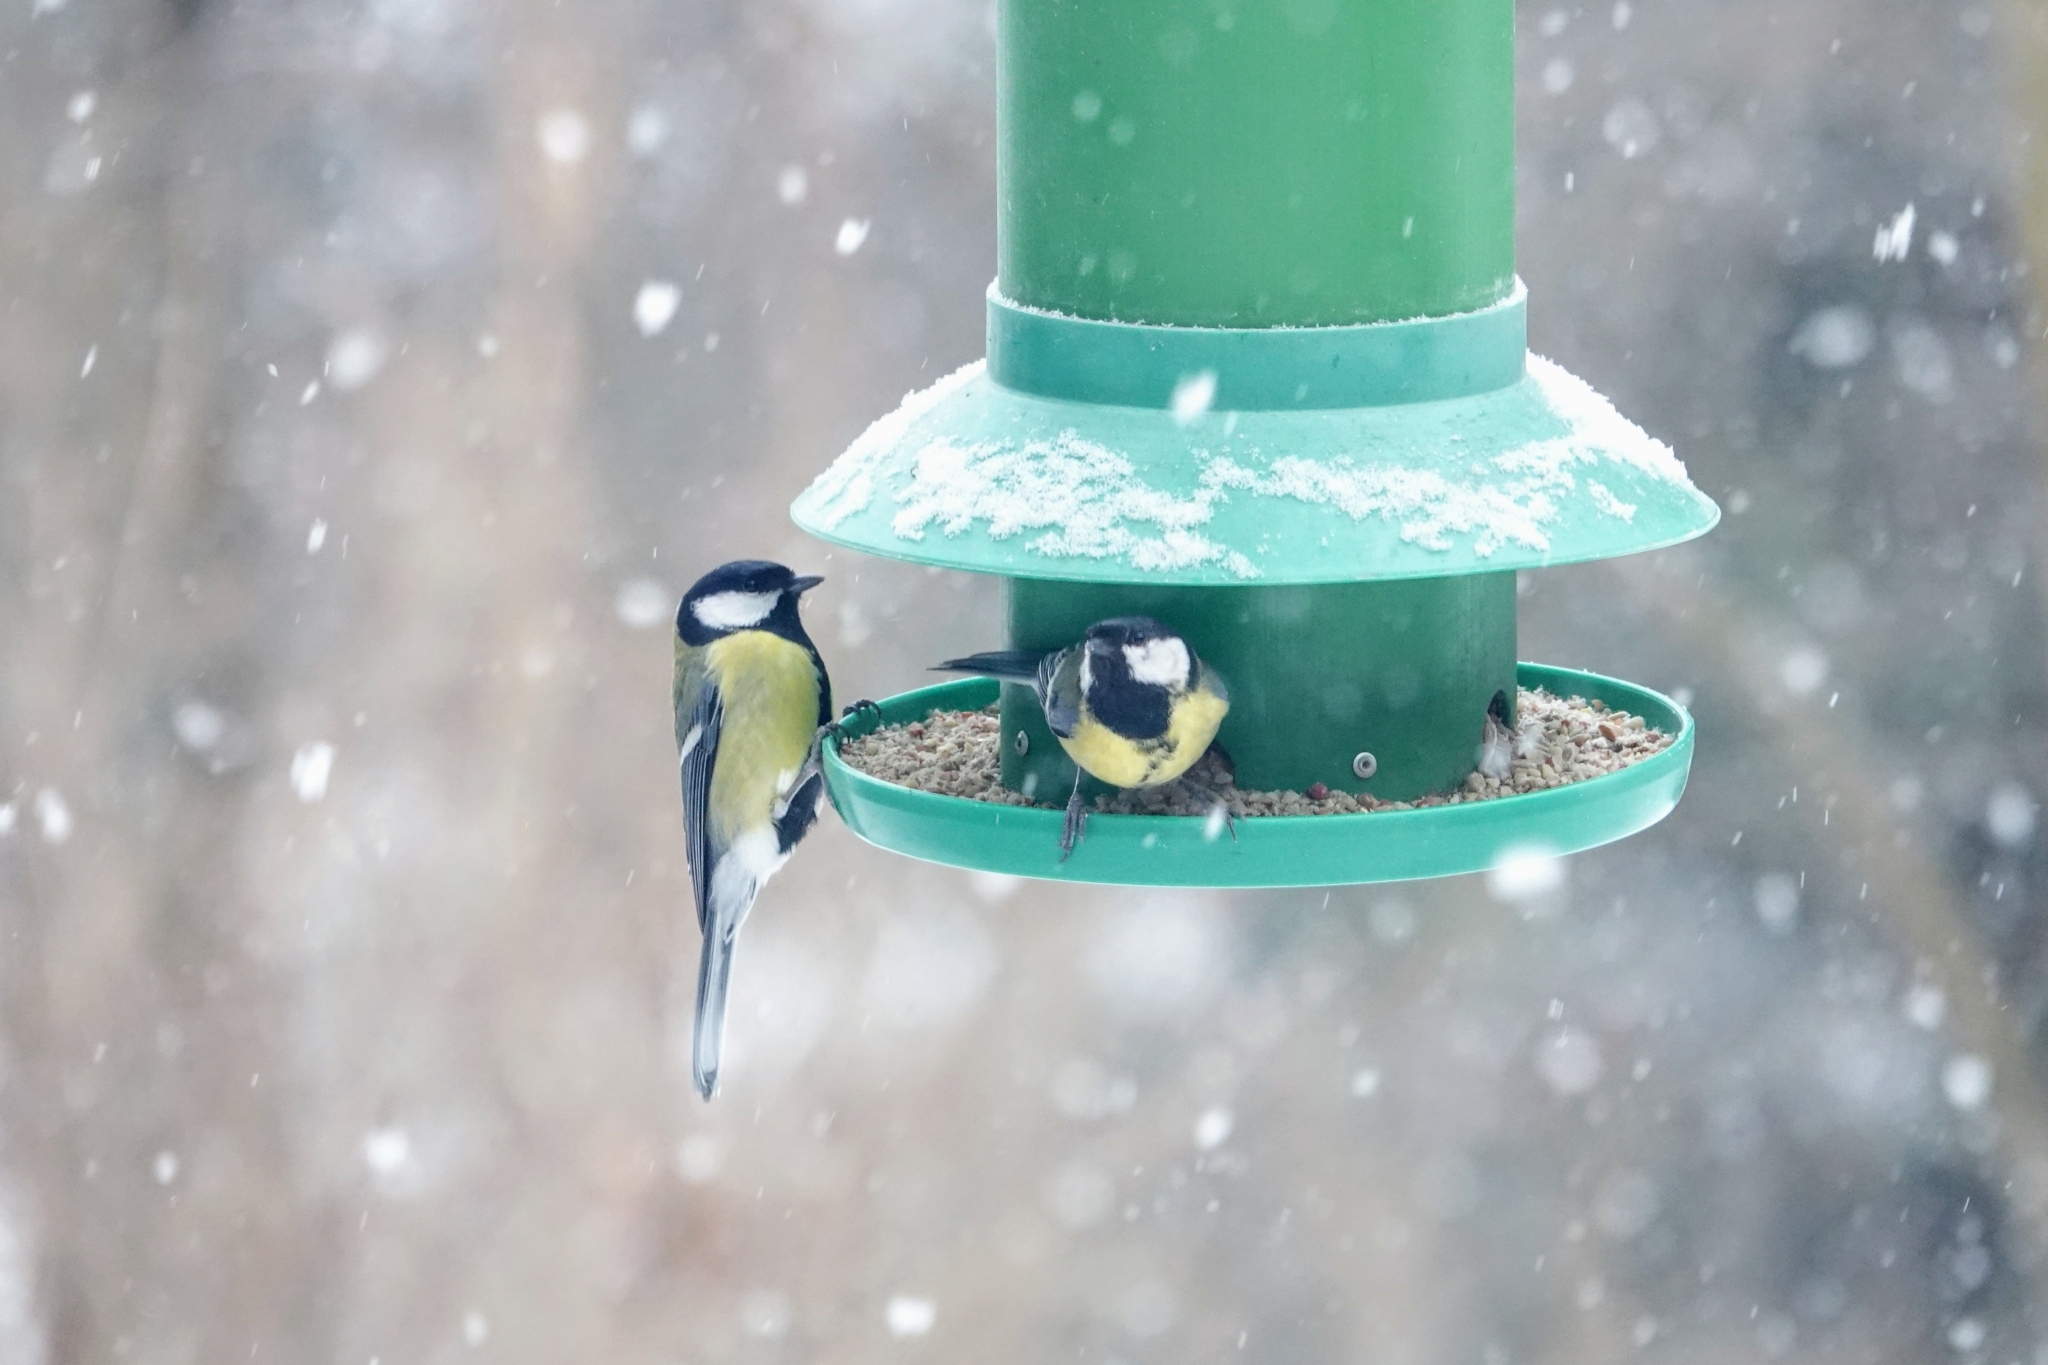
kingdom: Animalia
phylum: Chordata
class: Aves
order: Passeriformes
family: Paridae
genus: Parus
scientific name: Parus major
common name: Great tit
